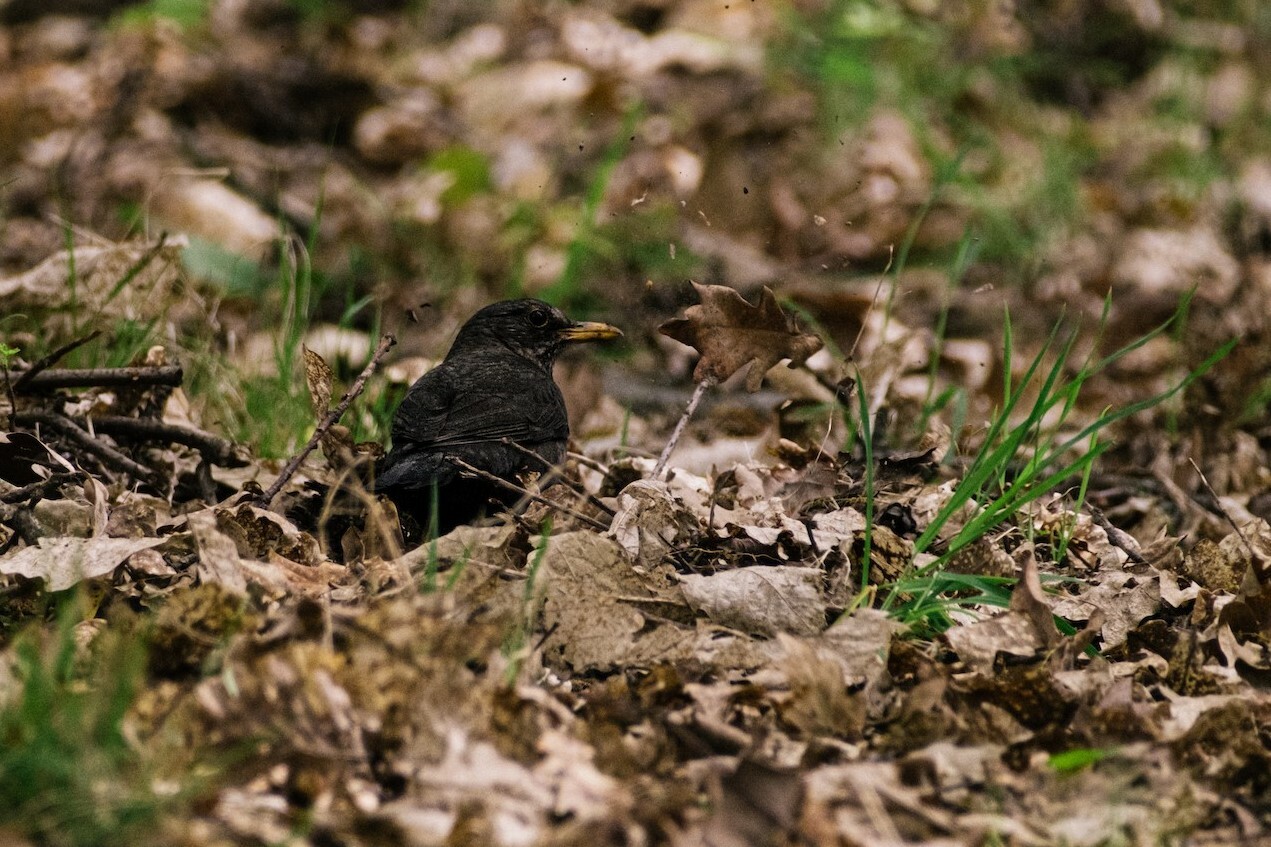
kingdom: Animalia
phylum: Chordata
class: Aves
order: Passeriformes
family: Turdidae
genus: Turdus
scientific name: Turdus merula
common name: Common blackbird
